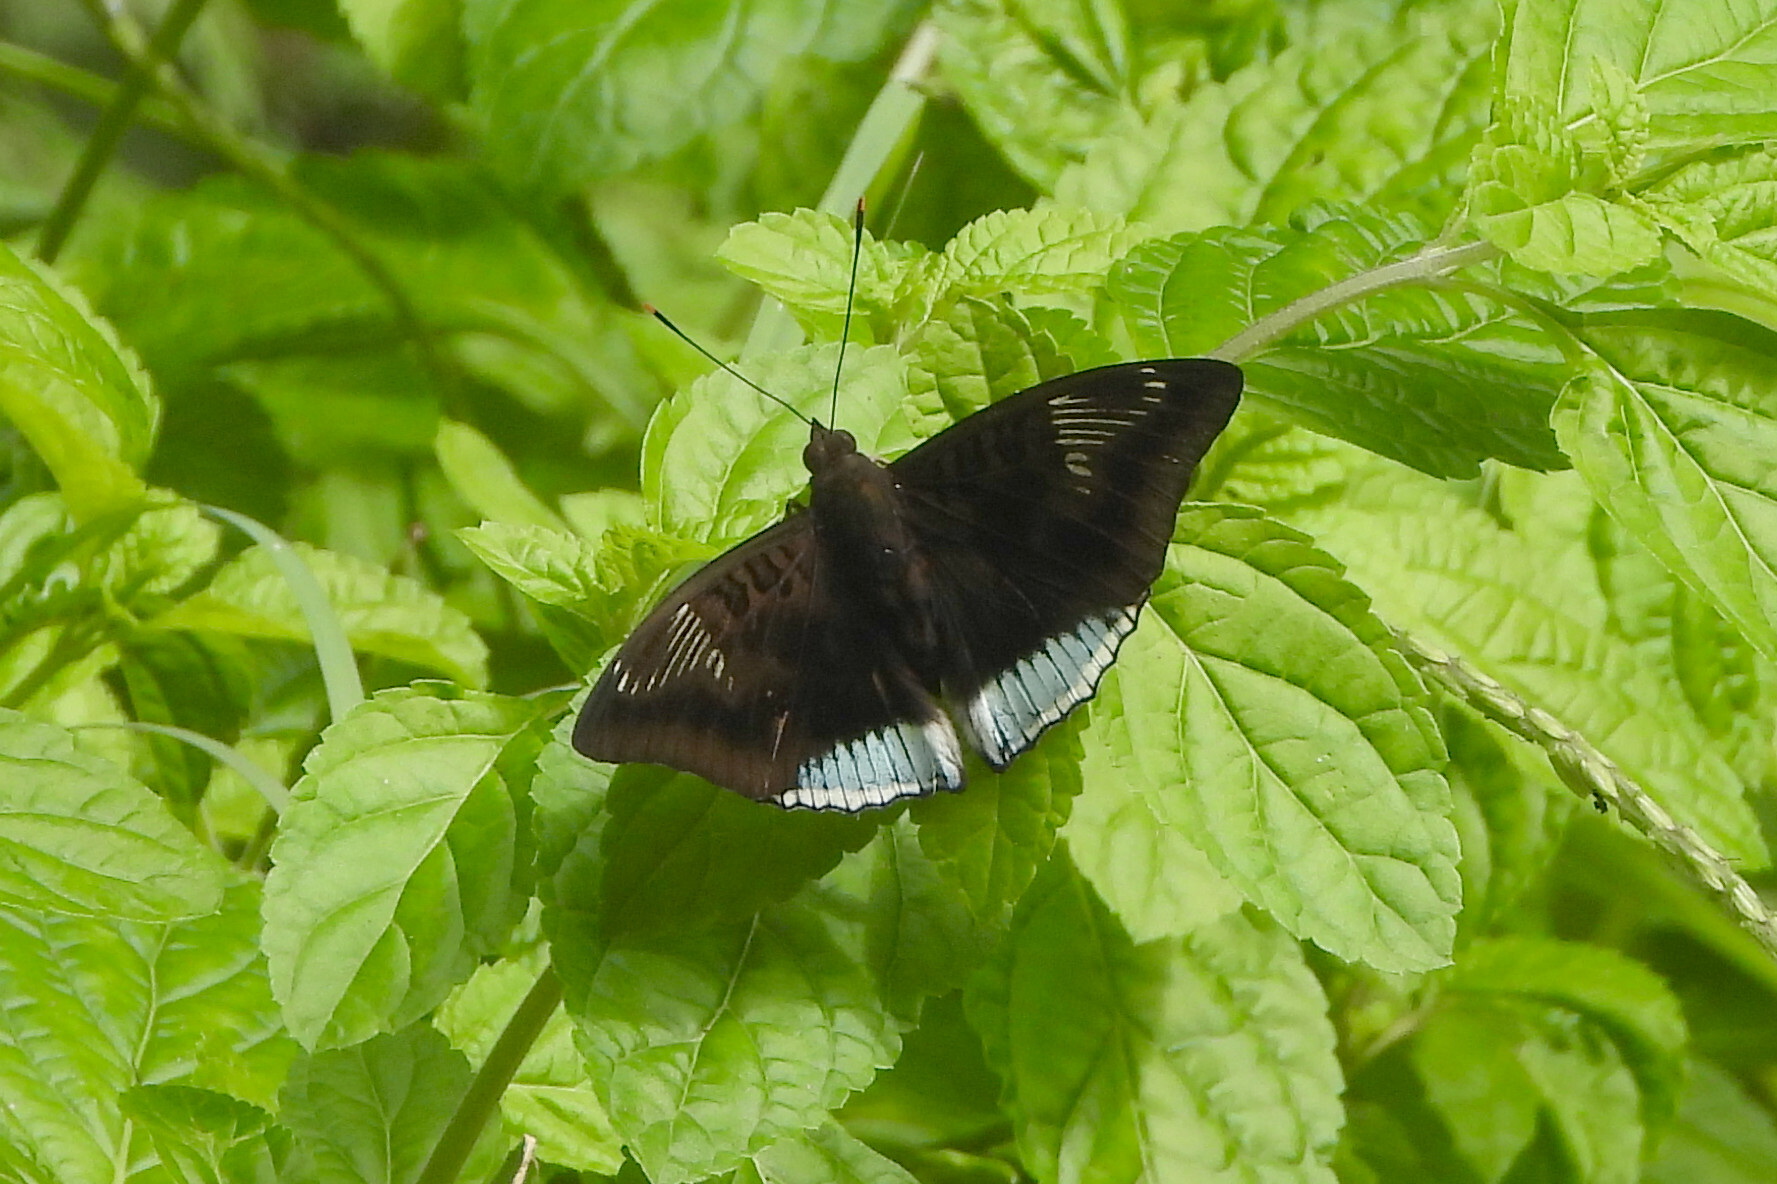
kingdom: Animalia
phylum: Arthropoda
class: Insecta
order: Lepidoptera
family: Nymphalidae
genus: Euthalia
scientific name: Euthalia phemius
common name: White-edged blue baron
